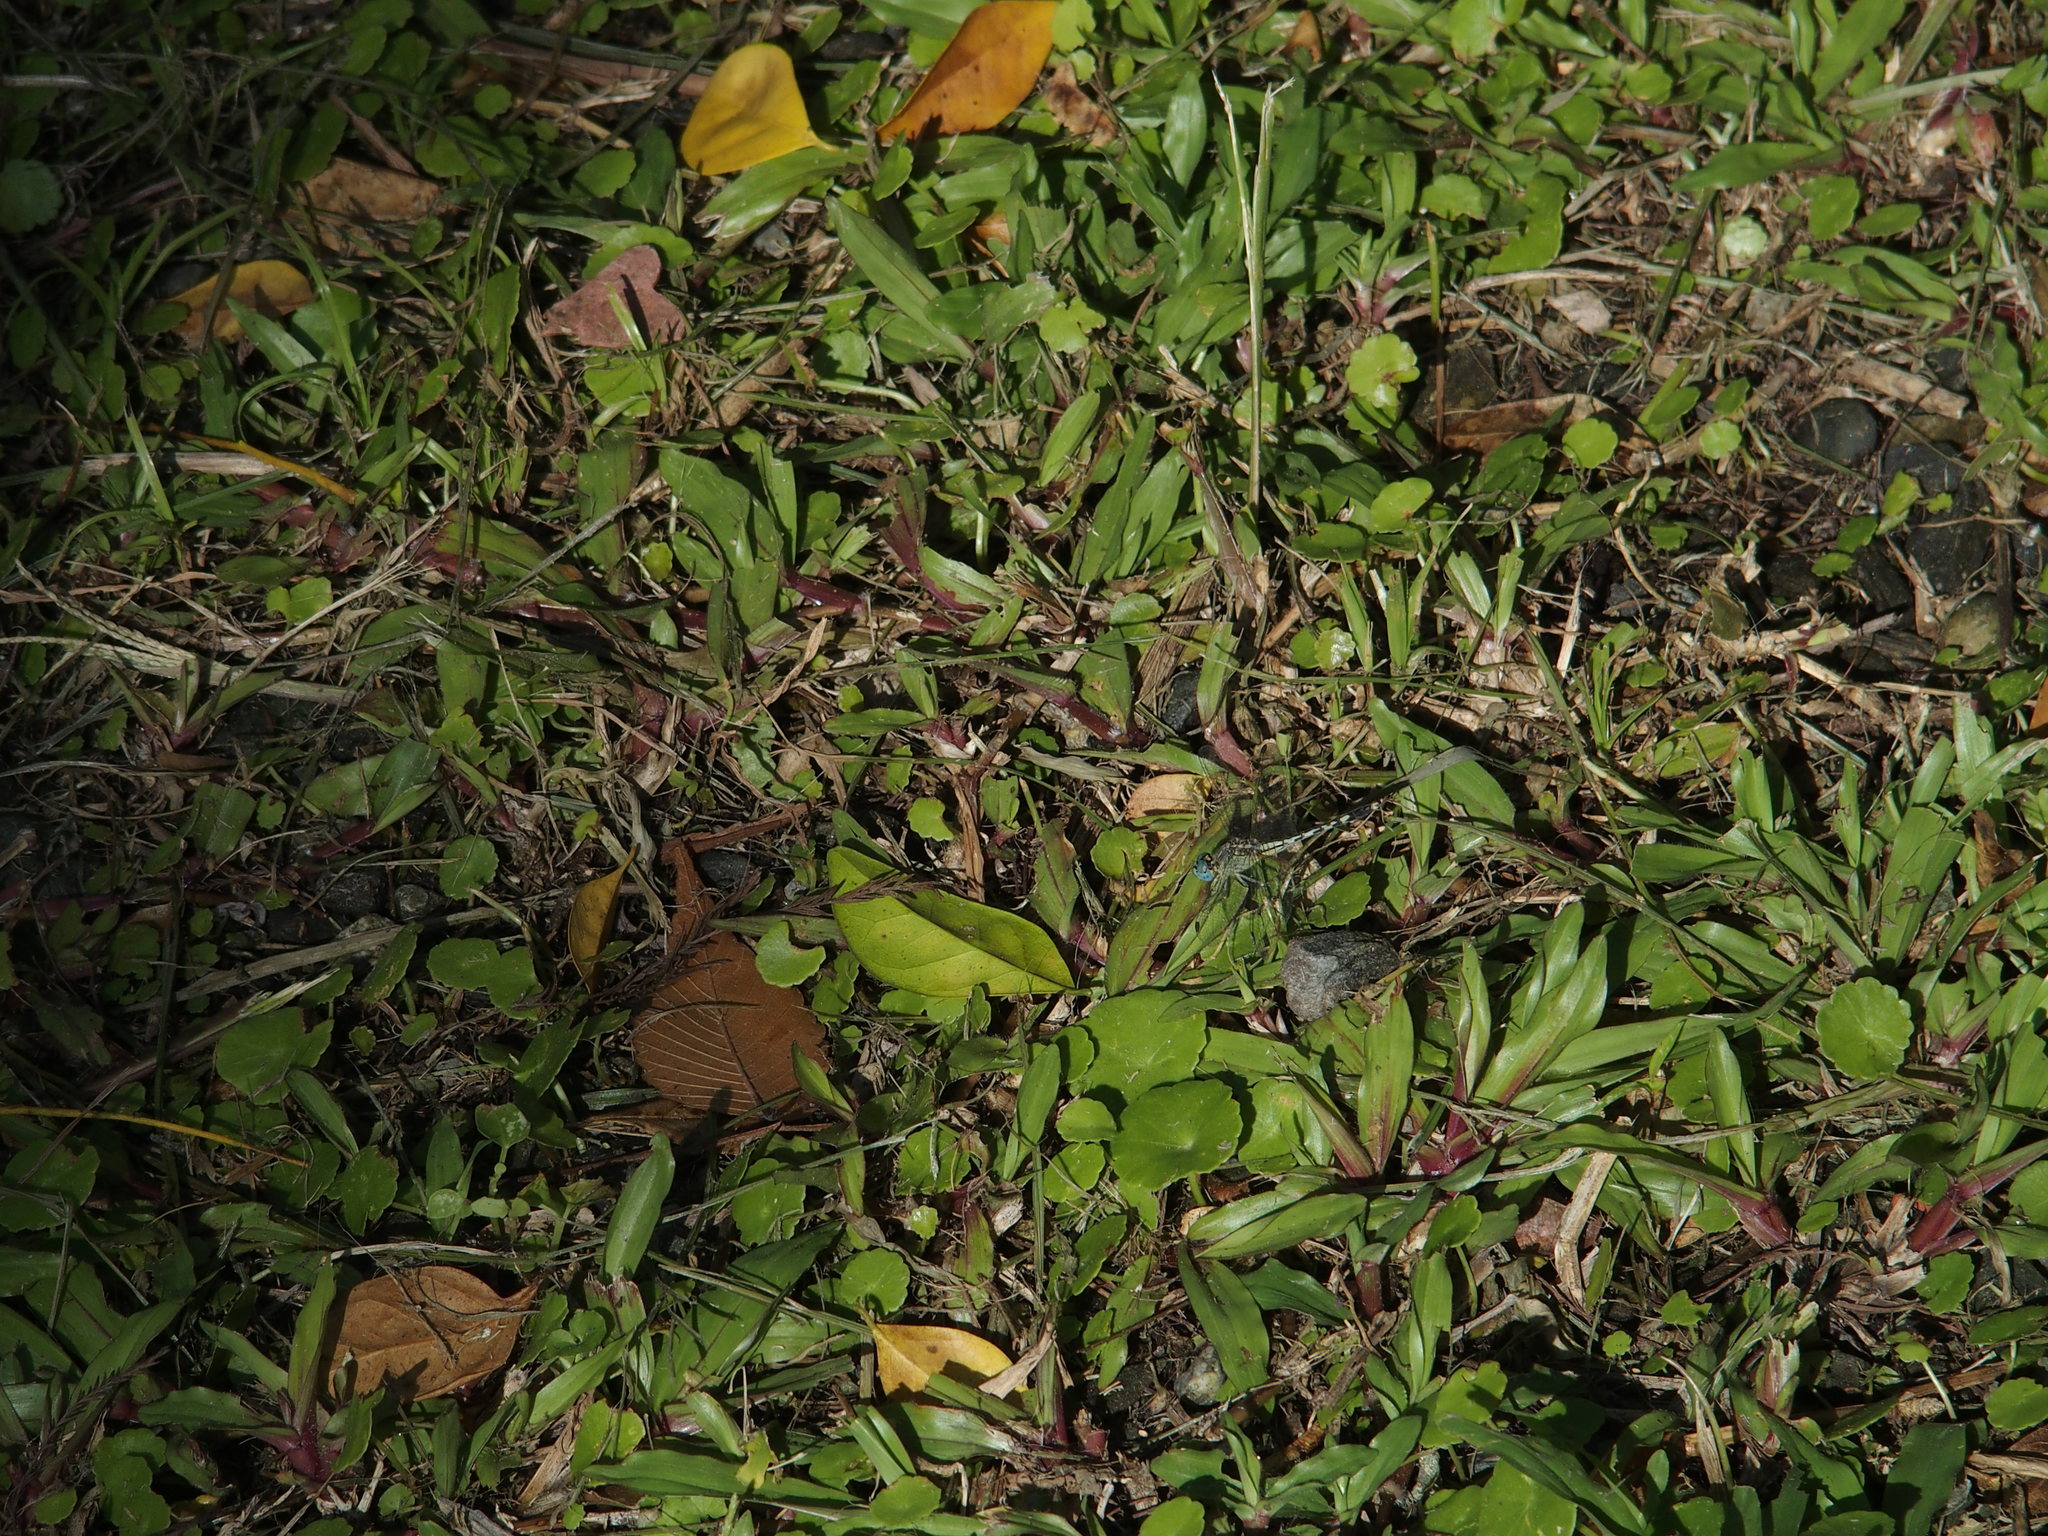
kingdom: Animalia
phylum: Arthropoda
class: Insecta
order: Odonata
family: Libellulidae
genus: Diplacodes
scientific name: Diplacodes trivialis
